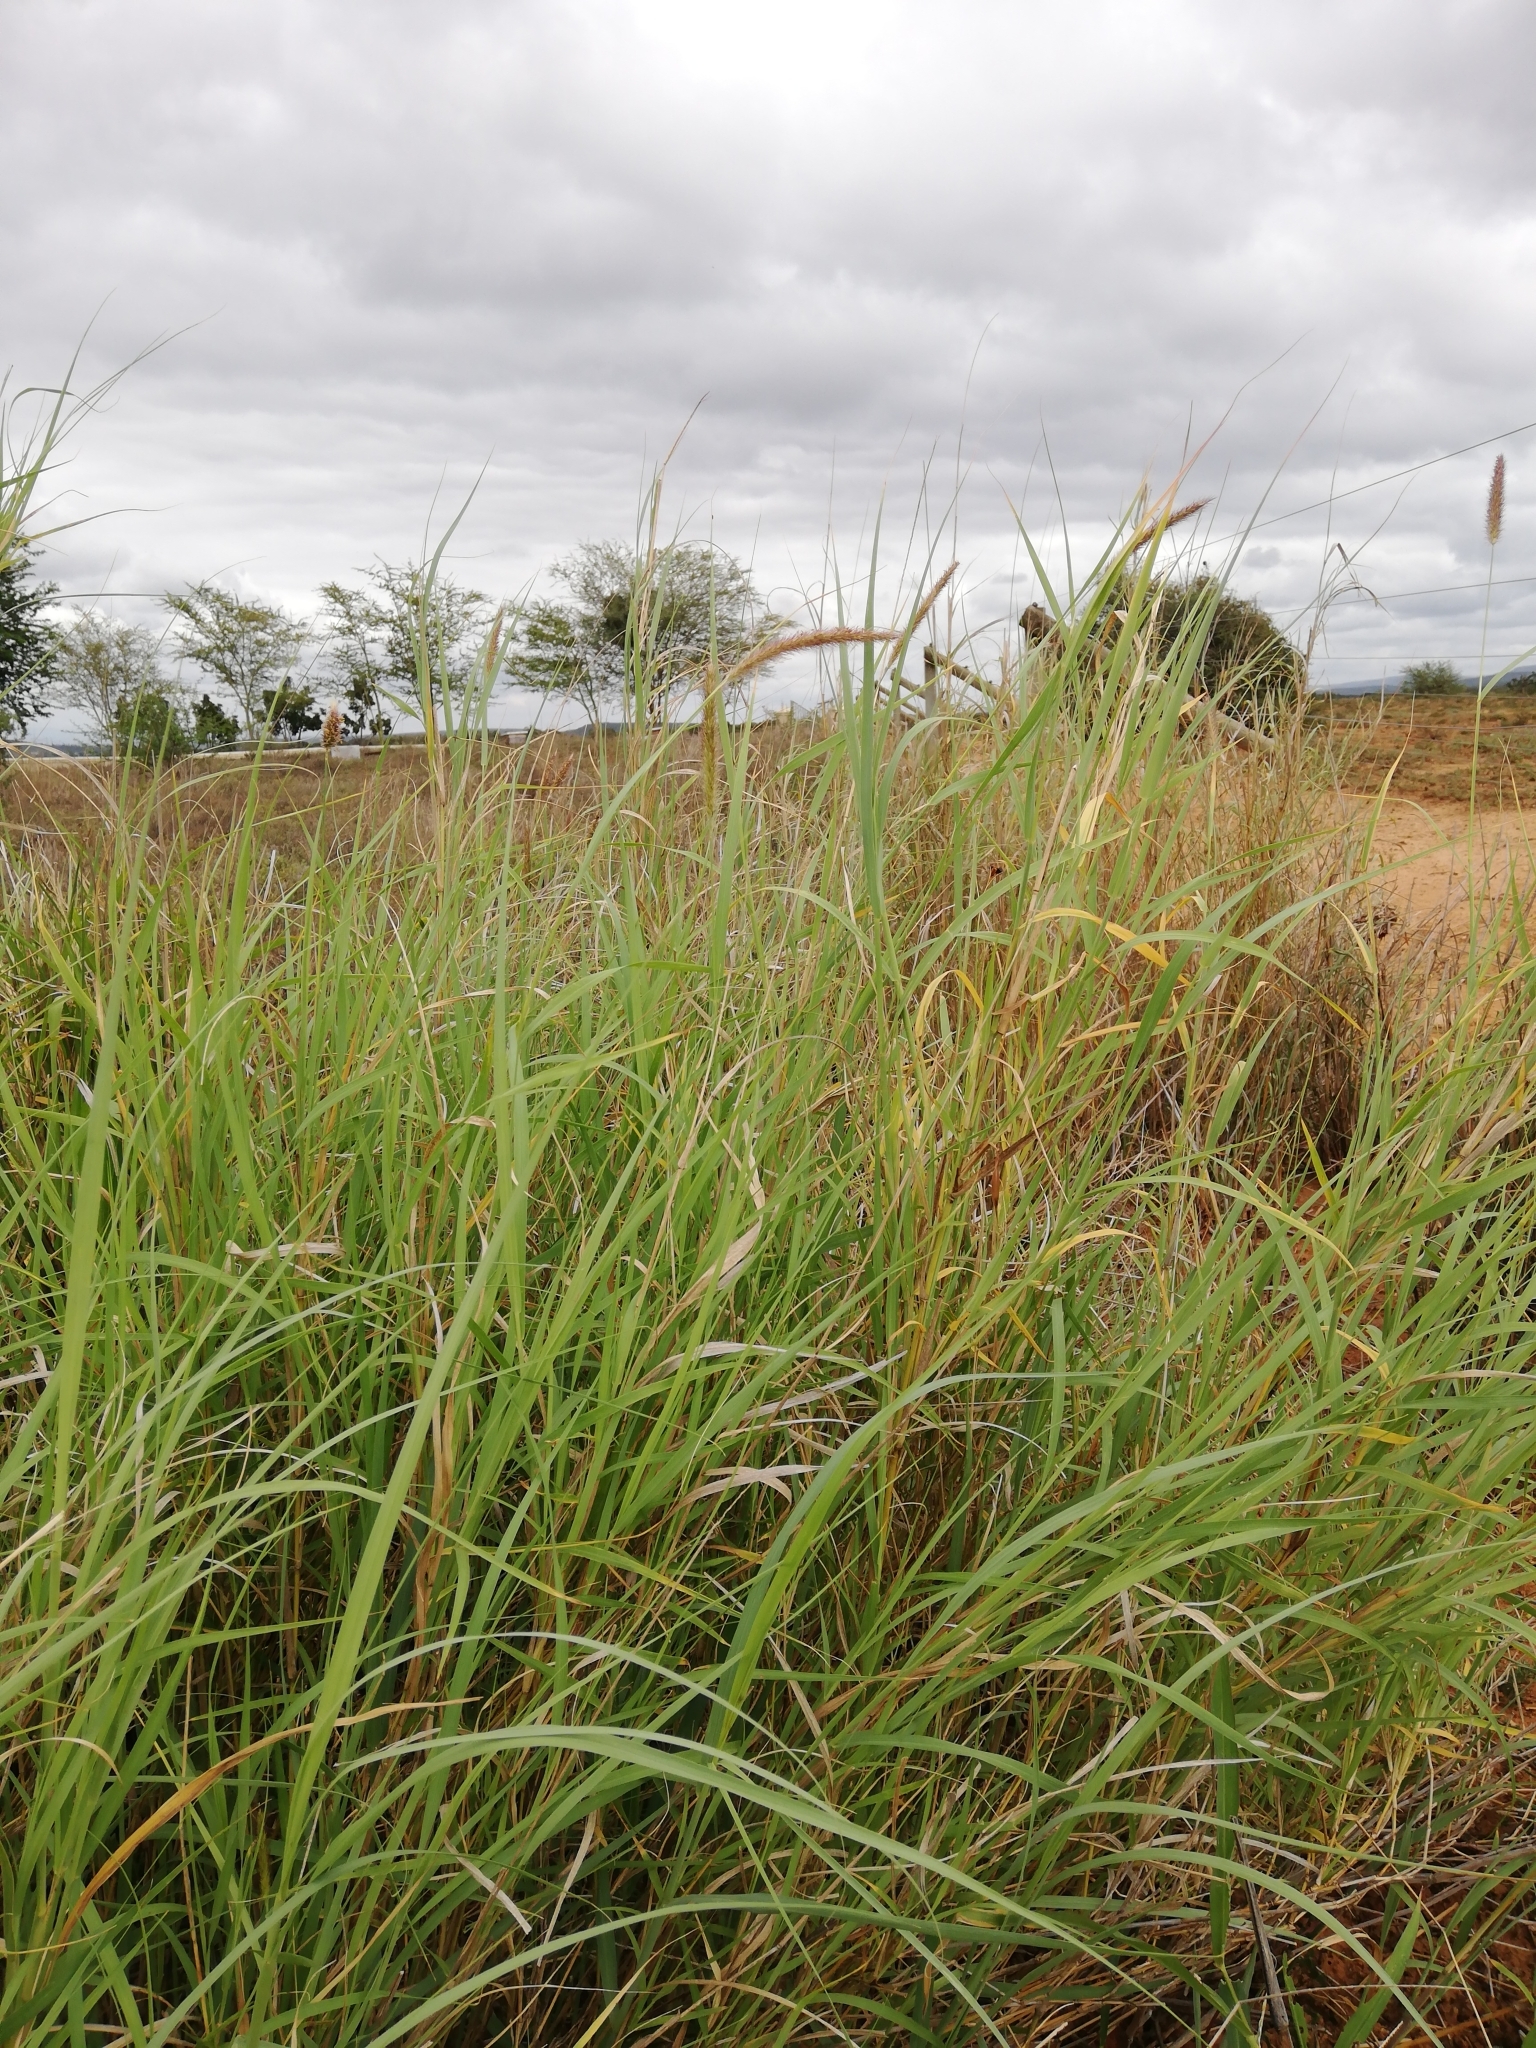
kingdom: Plantae
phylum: Tracheophyta
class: Liliopsida
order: Poales
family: Poaceae
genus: Cenchrus
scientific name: Cenchrus ciliaris
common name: Buffelgrass
